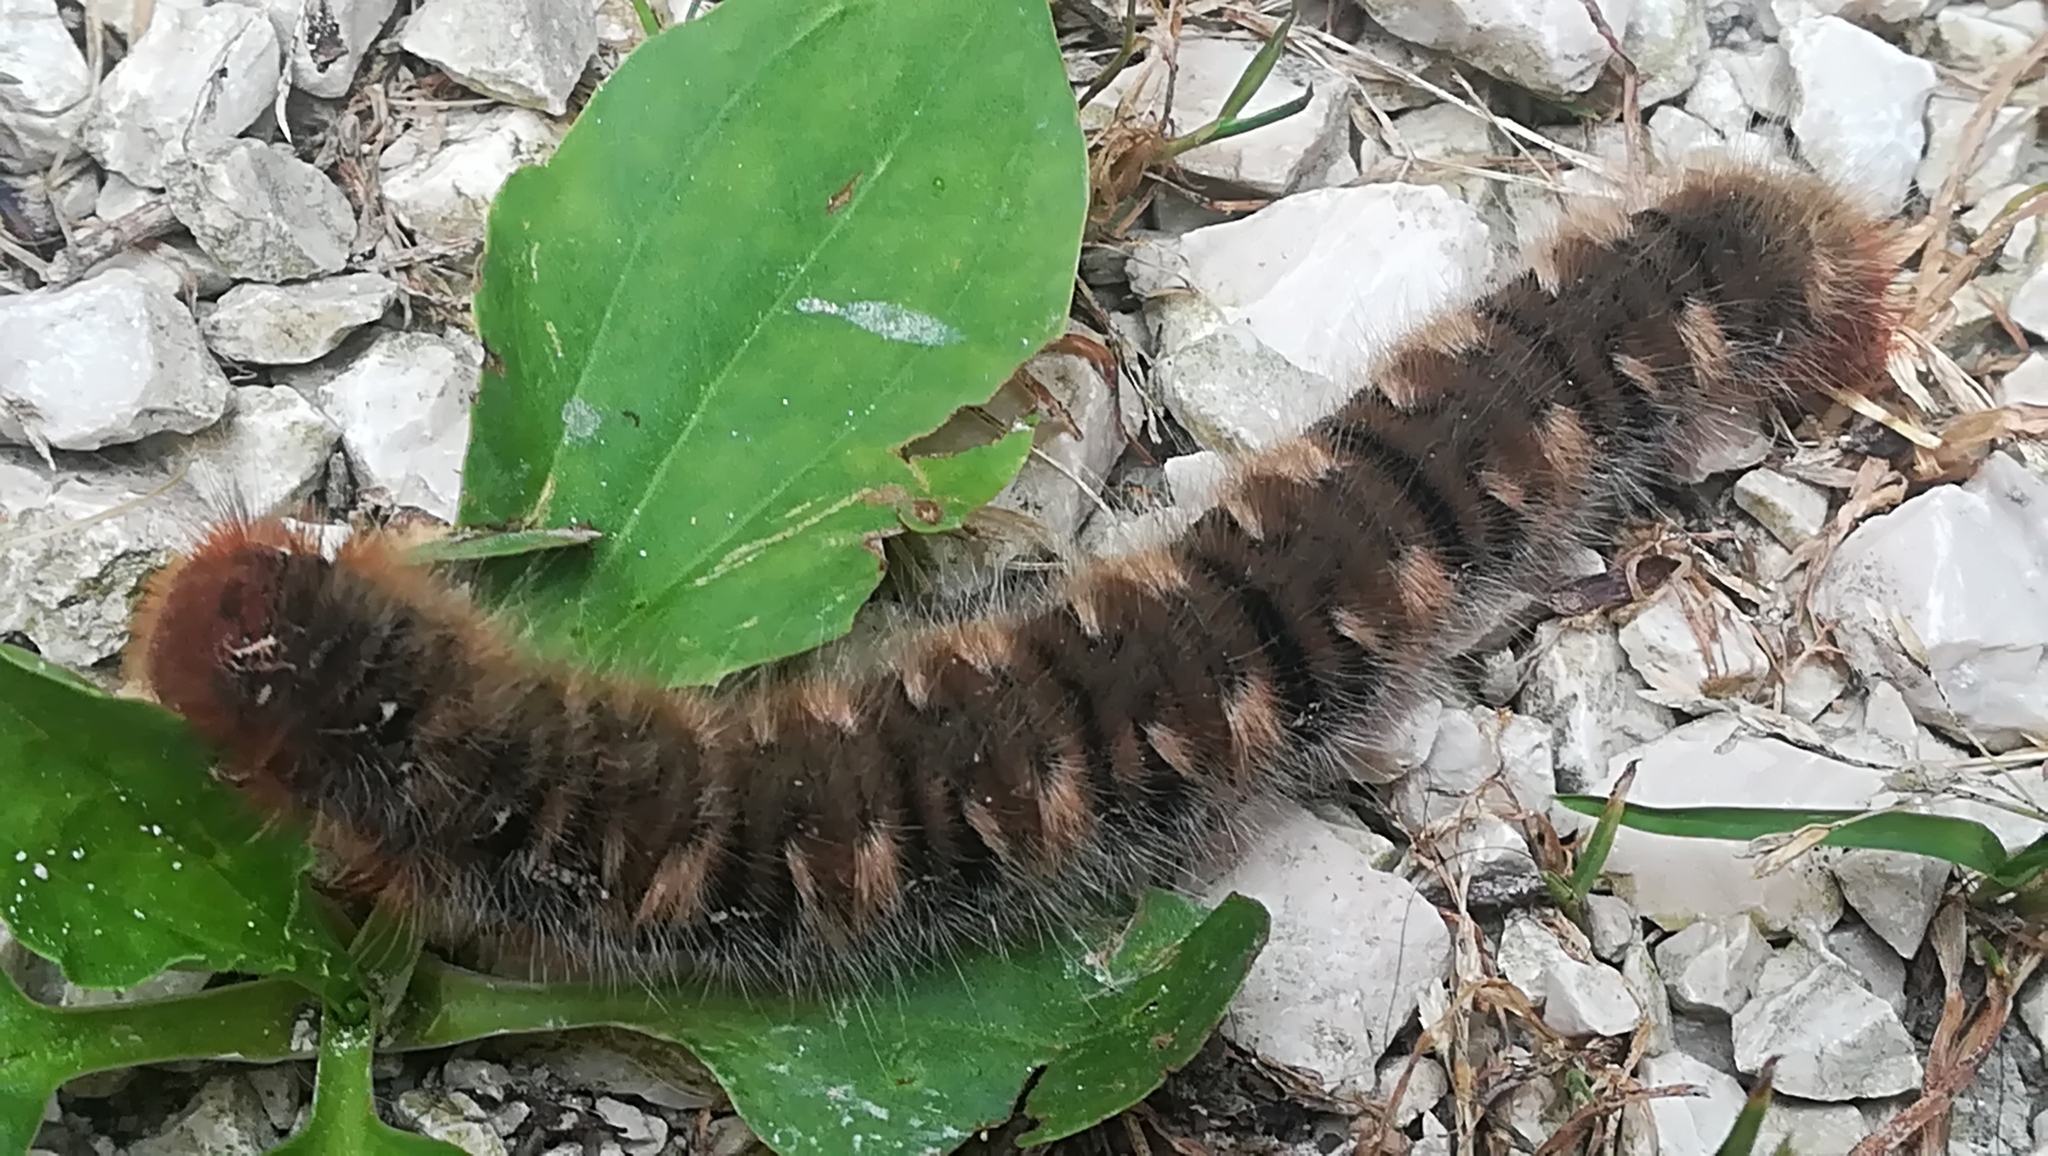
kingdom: Animalia
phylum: Arthropoda
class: Insecta
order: Lepidoptera
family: Lasiocampidae
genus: Lasiocampa
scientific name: Lasiocampa quercus
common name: Oak eggar
